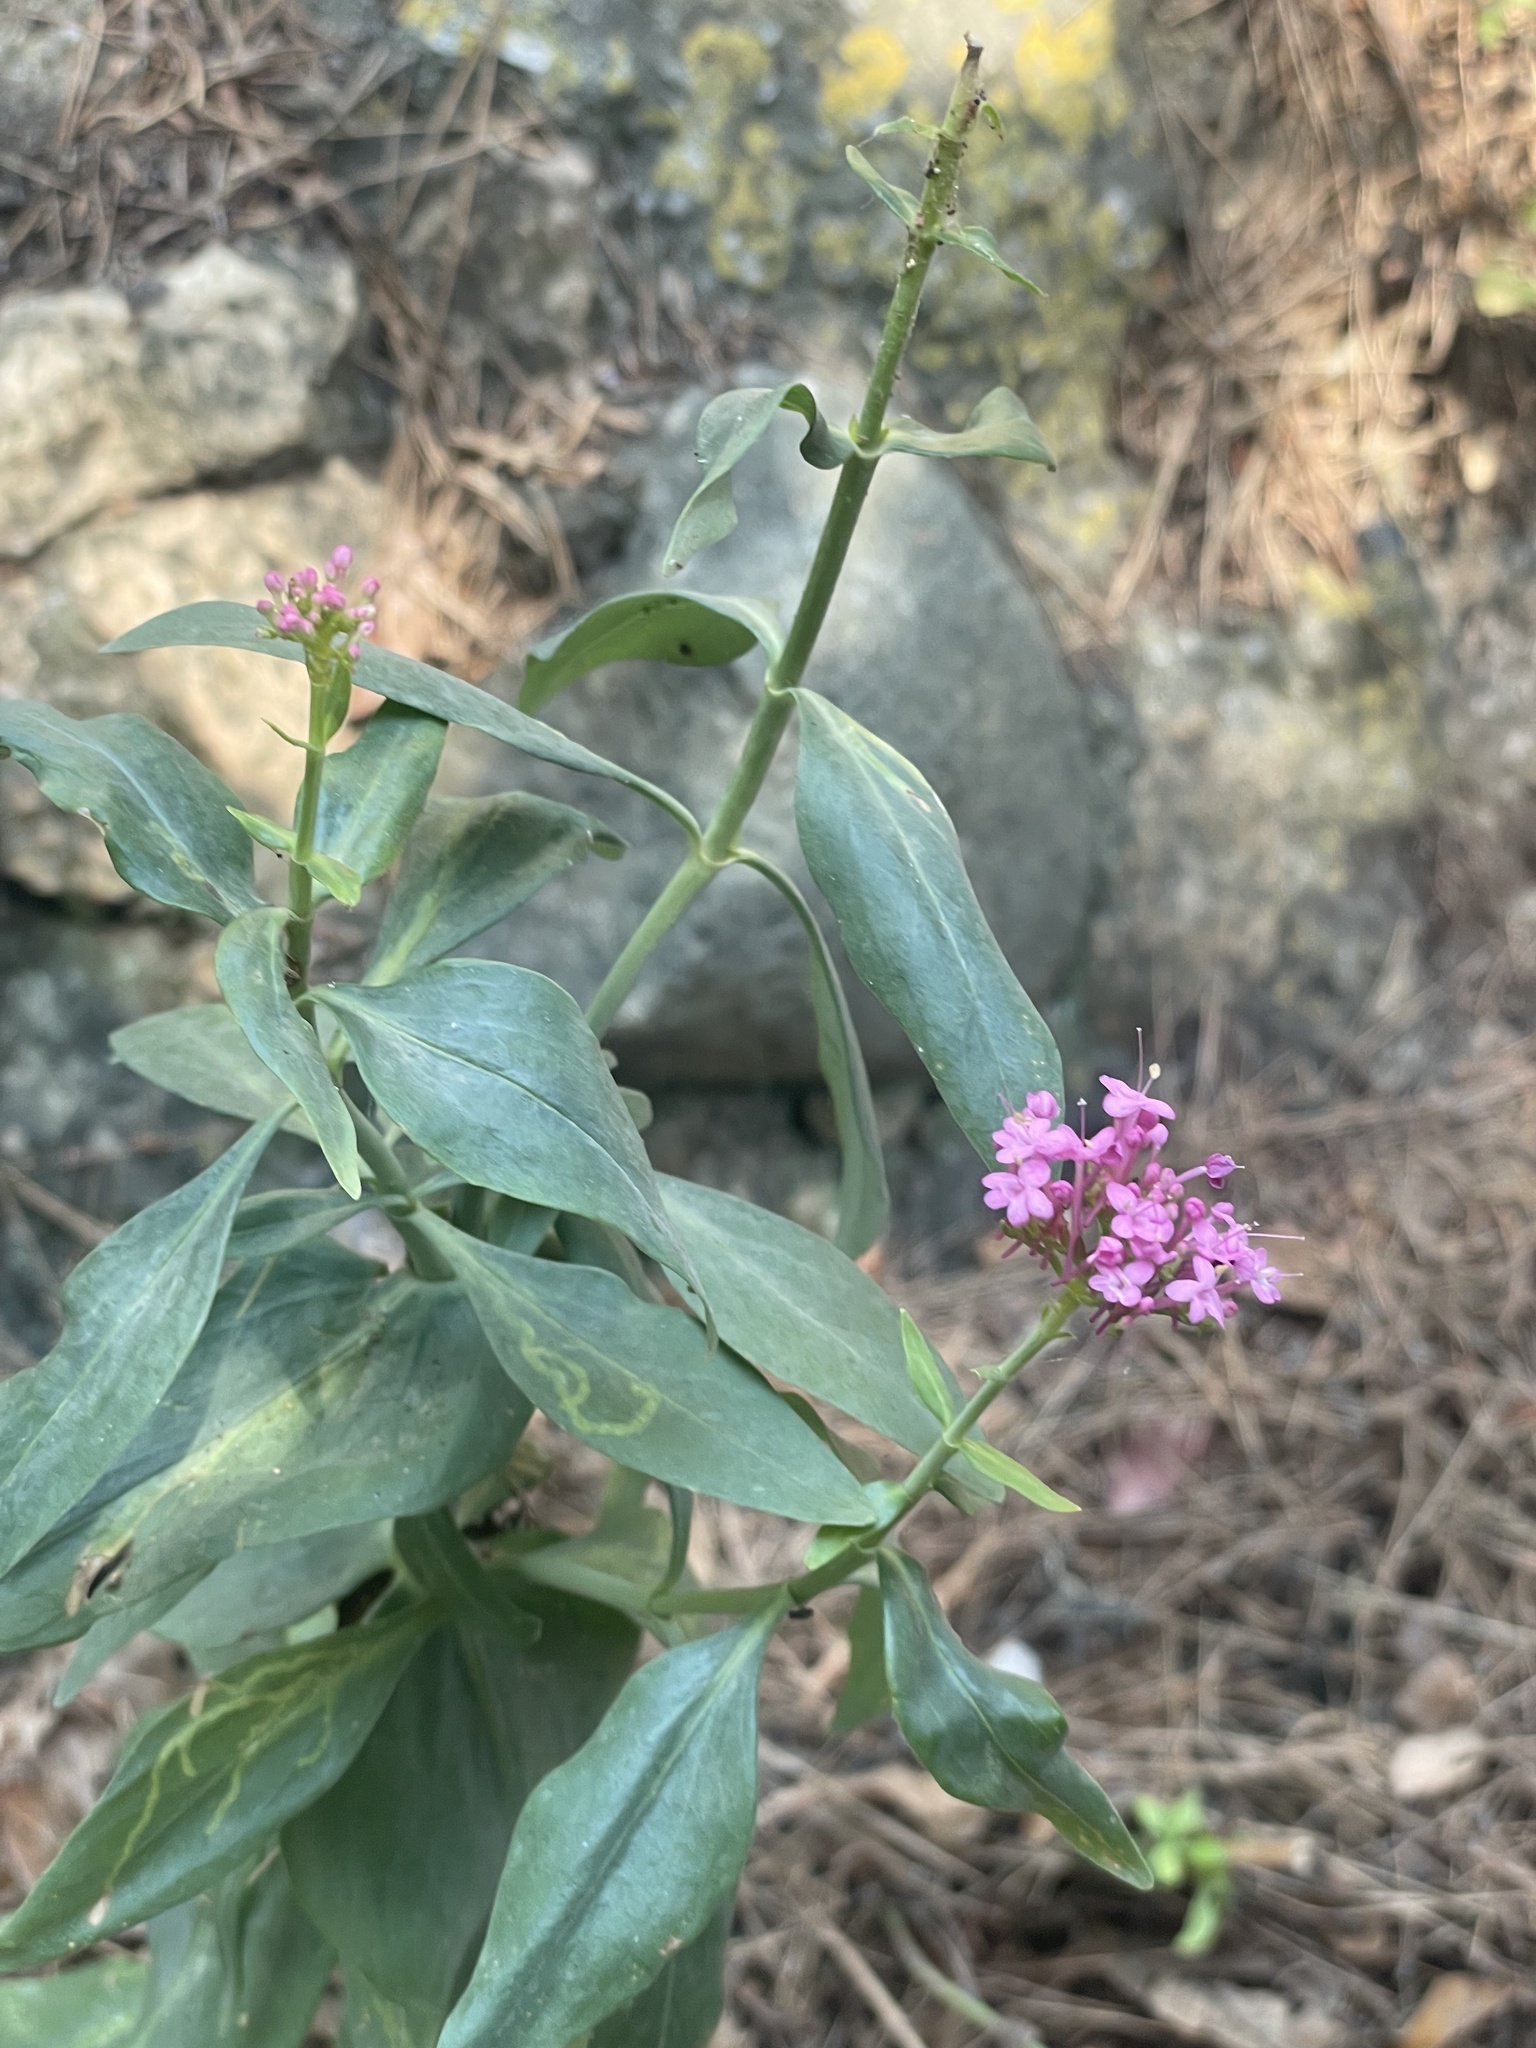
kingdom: Plantae
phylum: Tracheophyta
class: Magnoliopsida
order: Dipsacales
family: Caprifoliaceae
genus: Centranthus
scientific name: Centranthus ruber
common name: Red valerian
